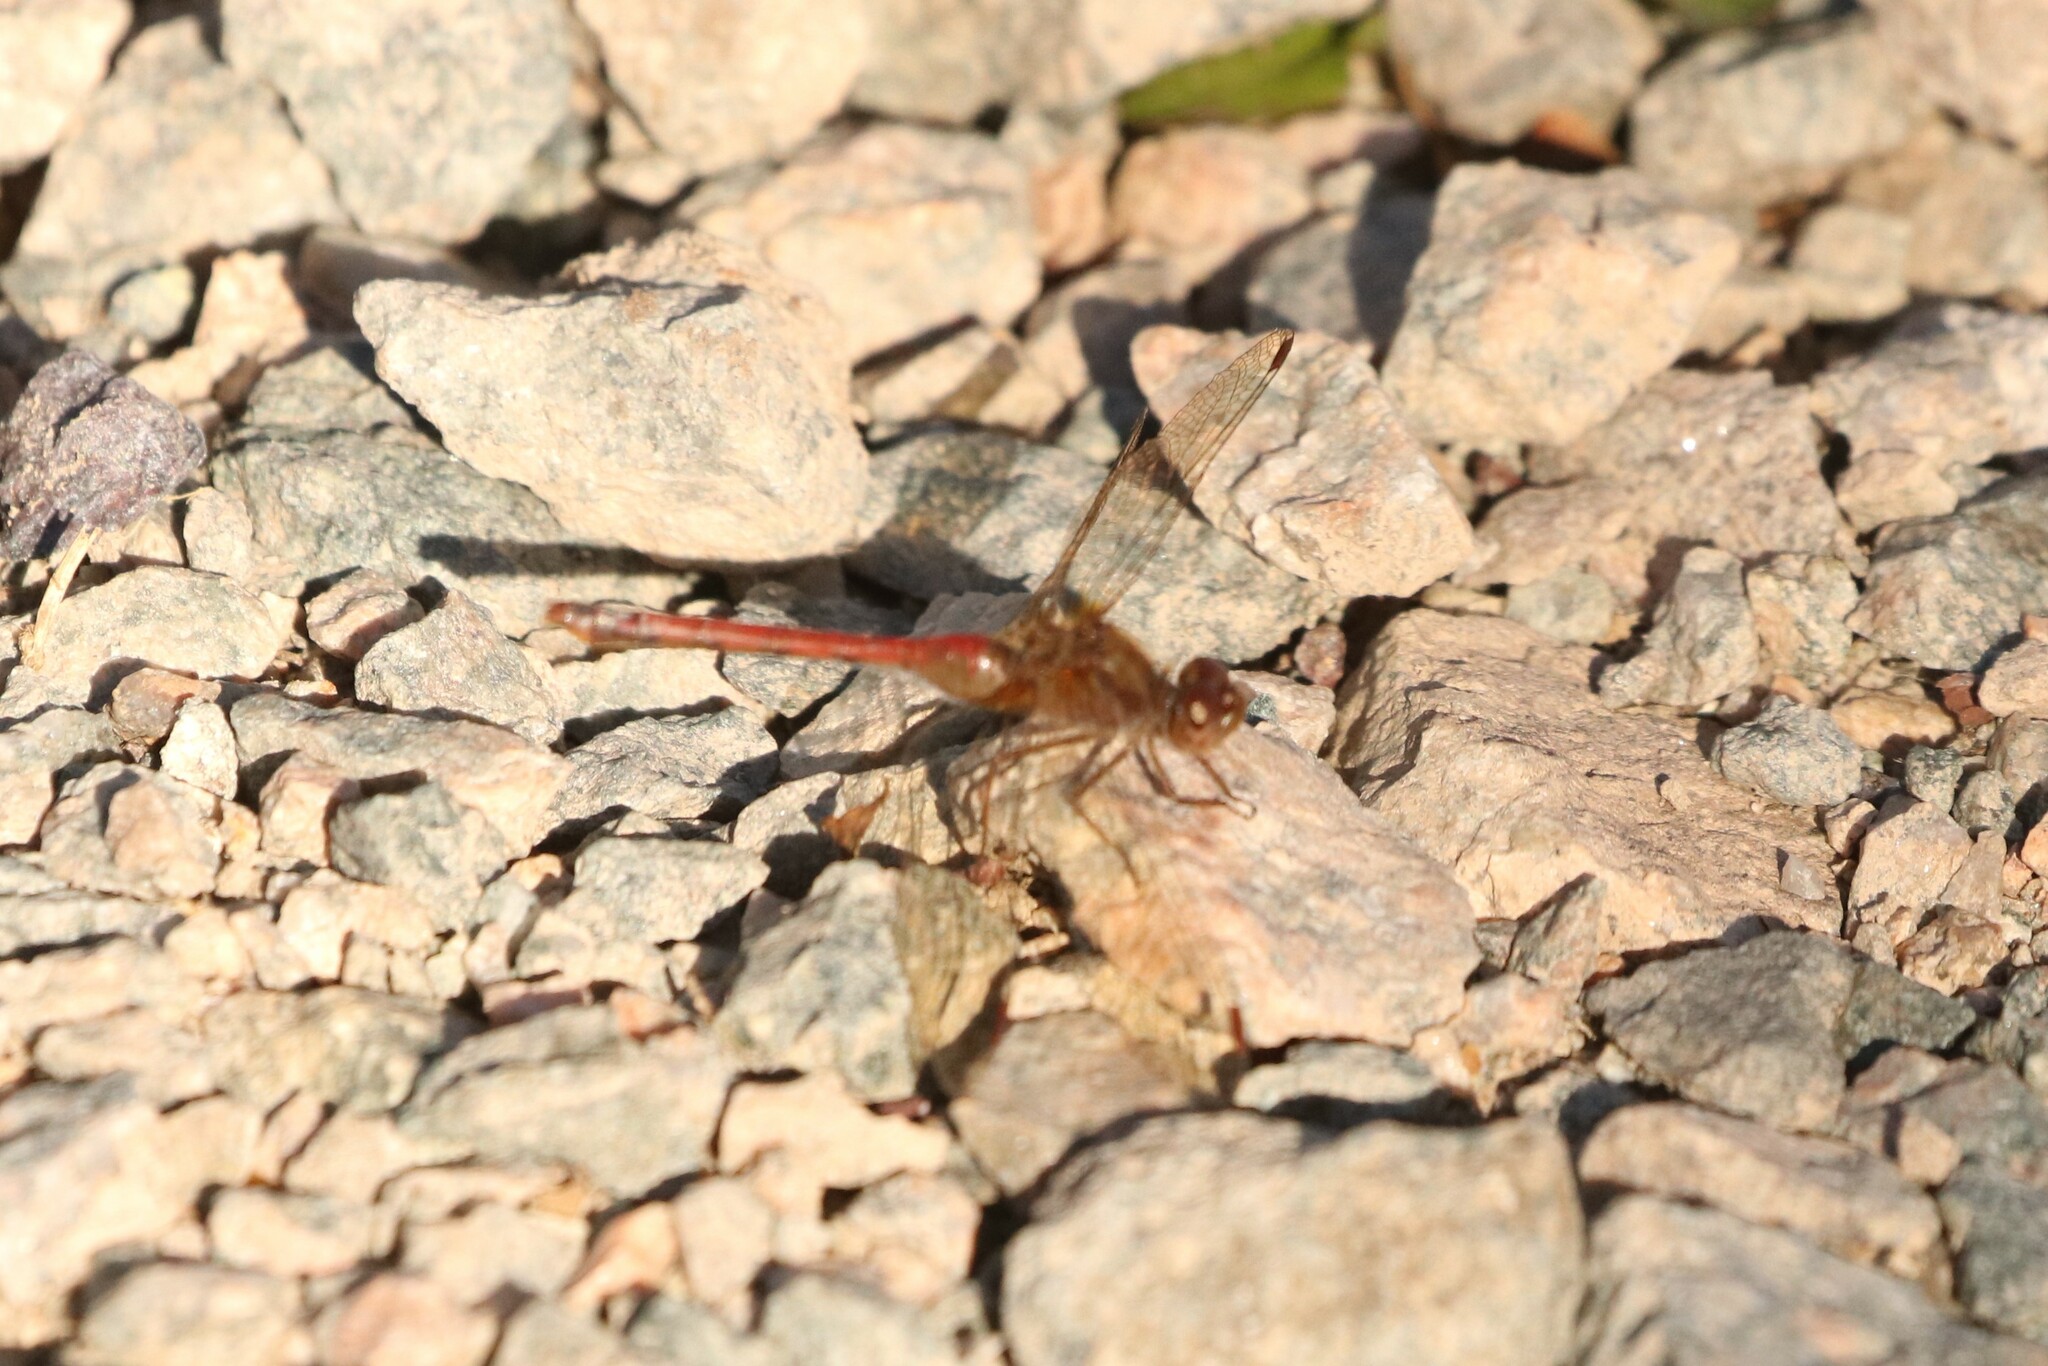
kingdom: Animalia
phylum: Arthropoda
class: Insecta
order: Odonata
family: Libellulidae
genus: Sympetrum
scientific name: Sympetrum vicinum
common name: Autumn meadowhawk
